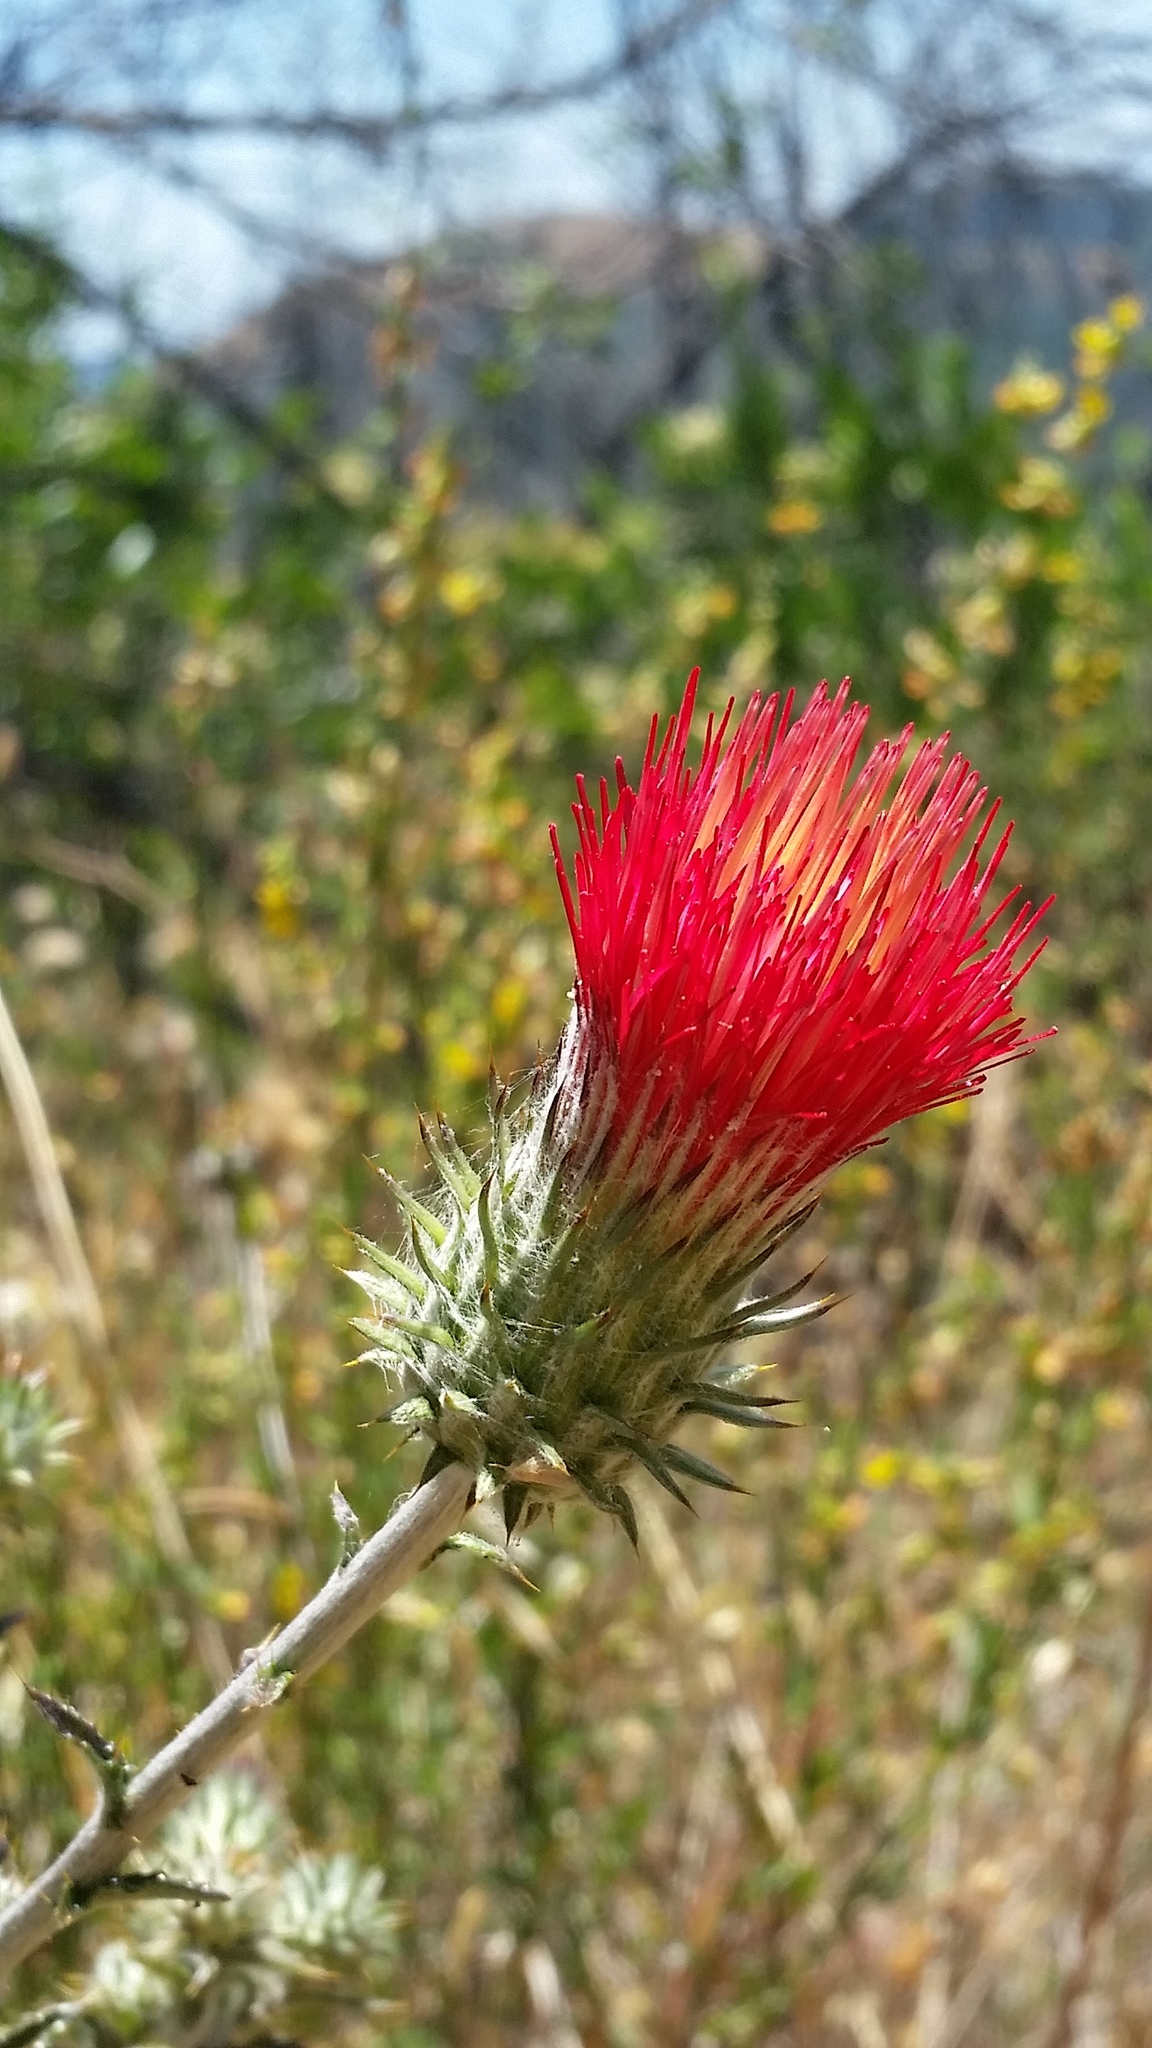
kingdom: Plantae
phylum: Tracheophyta
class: Magnoliopsida
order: Asterales
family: Asteraceae
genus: Cirsium
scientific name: Cirsium occidentale
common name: Western thistle
